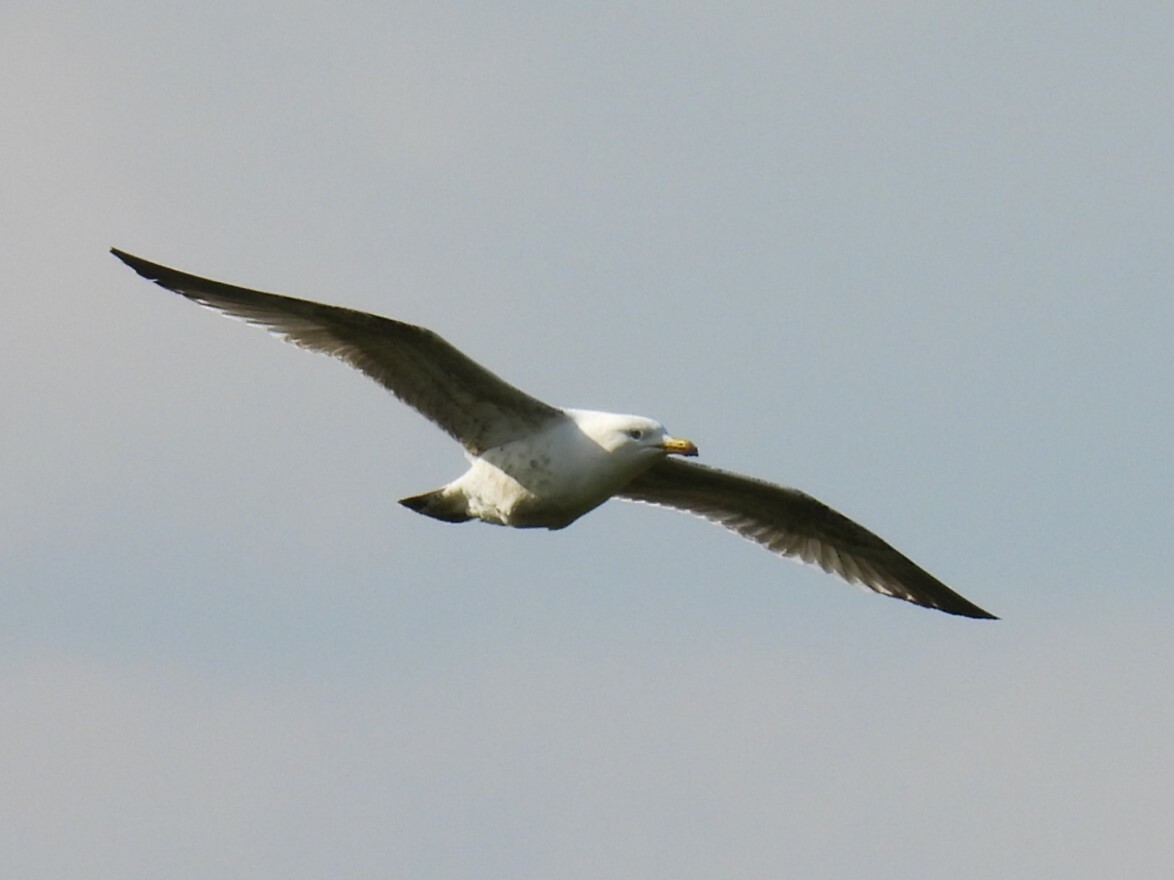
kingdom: Animalia
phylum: Chordata
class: Aves
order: Charadriiformes
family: Laridae
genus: Larus
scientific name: Larus argentatus
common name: Herring gull
